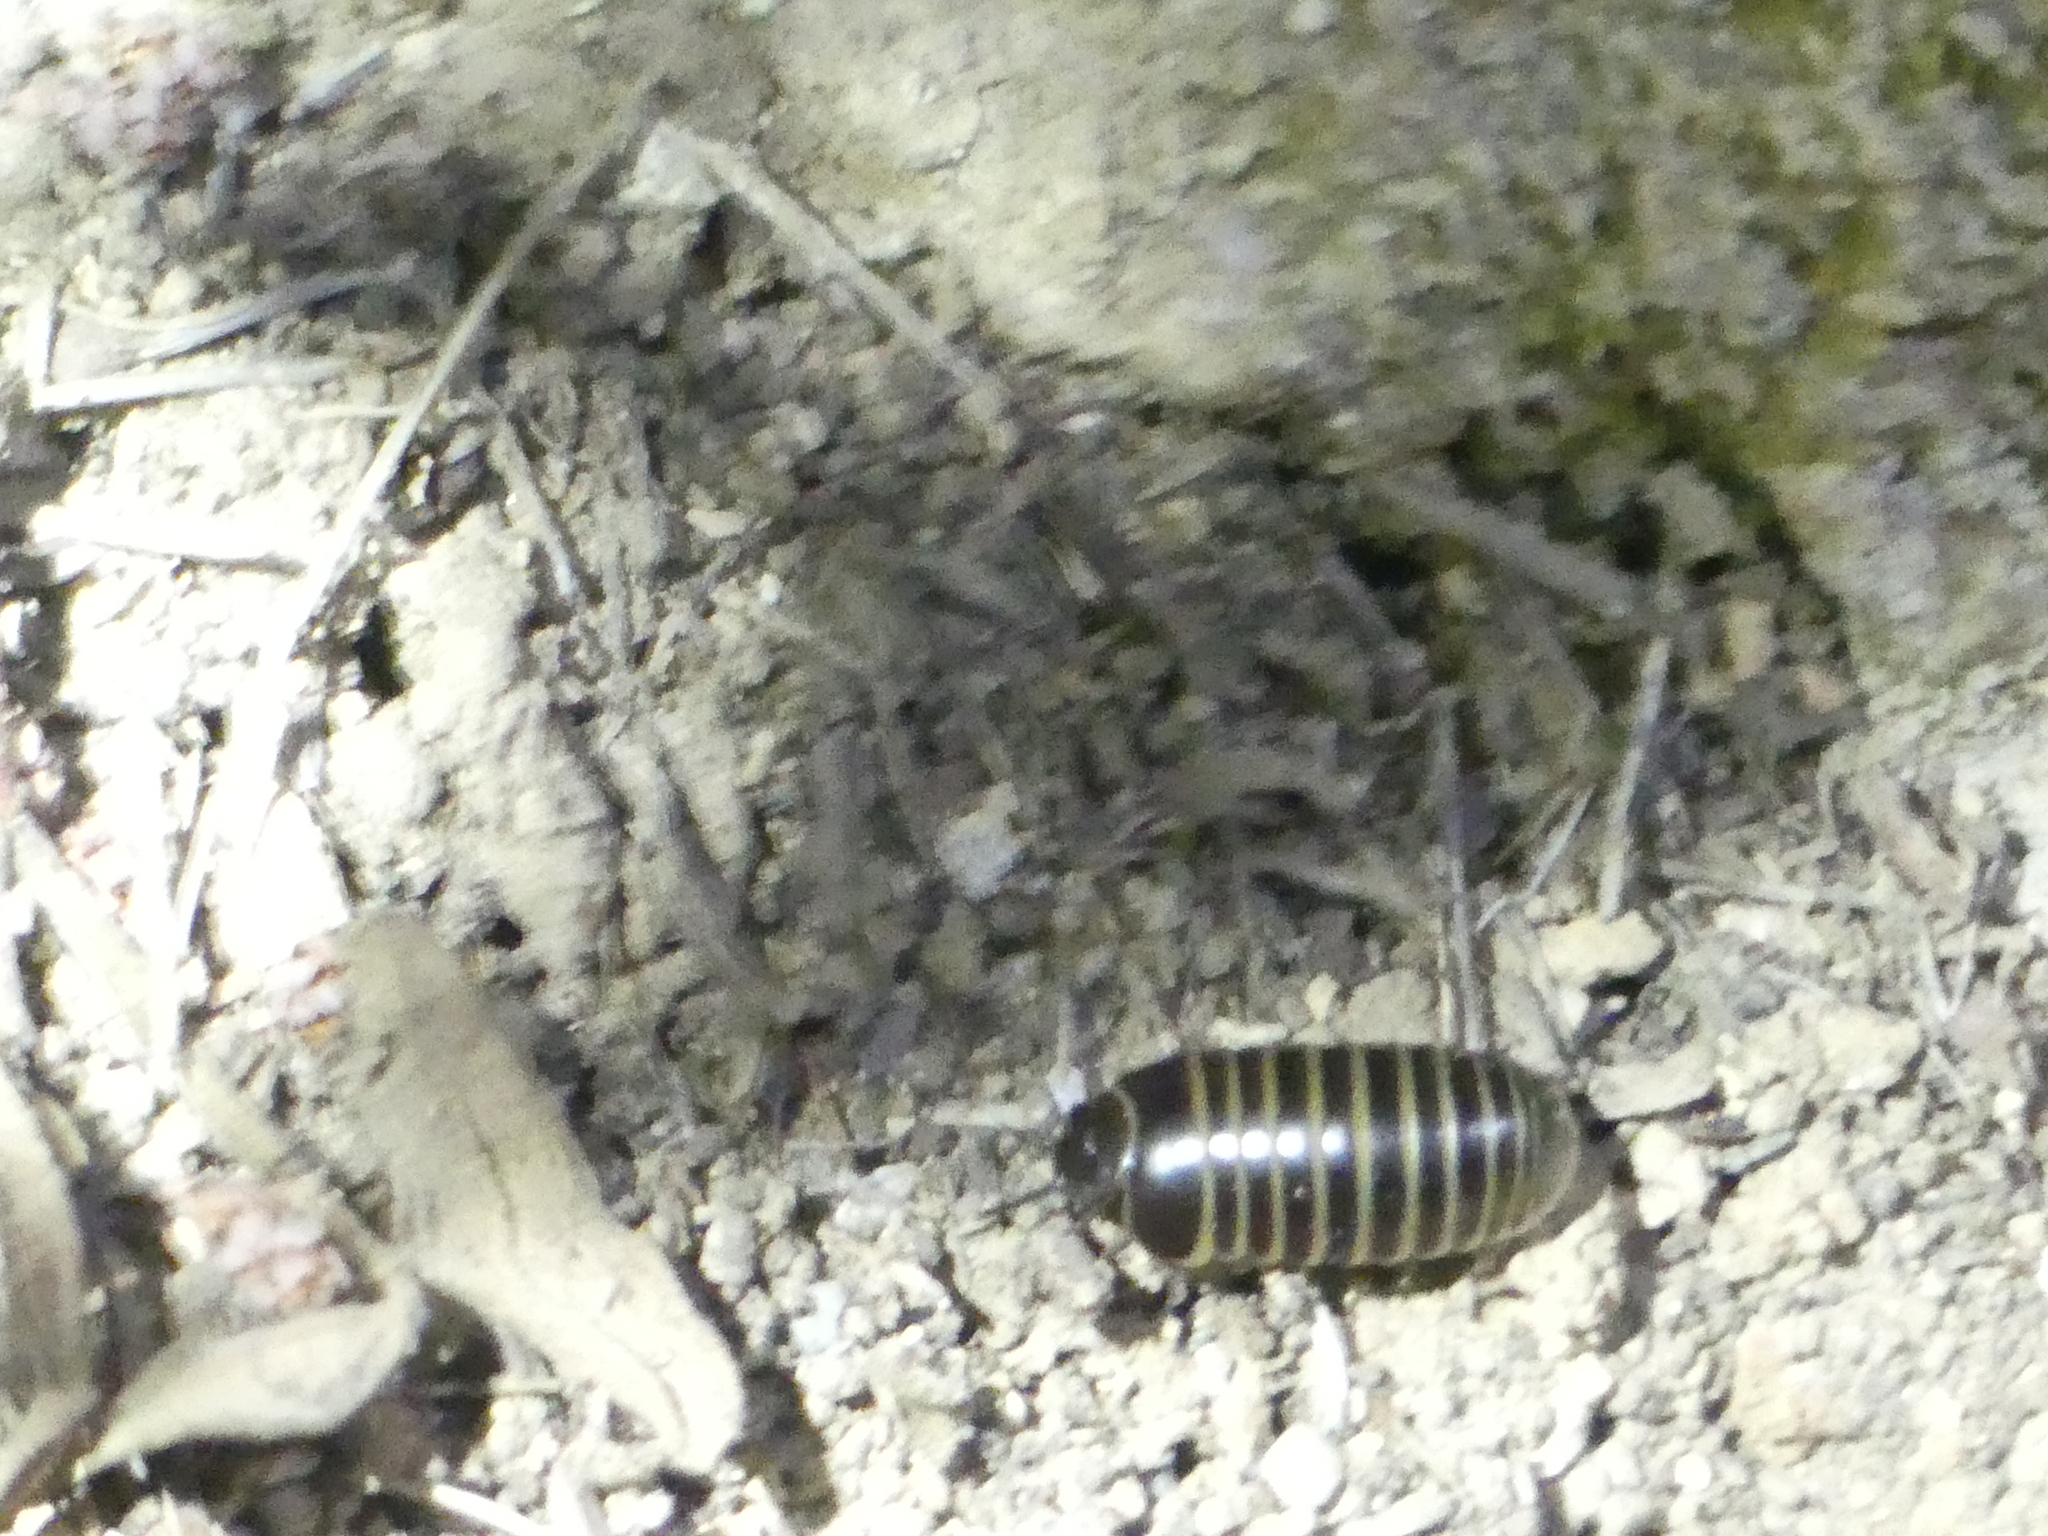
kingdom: Animalia
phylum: Arthropoda
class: Diplopoda
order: Glomerida
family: Glomeridae
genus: Glomeris
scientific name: Glomeris marginata
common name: Bordered pill millipede
